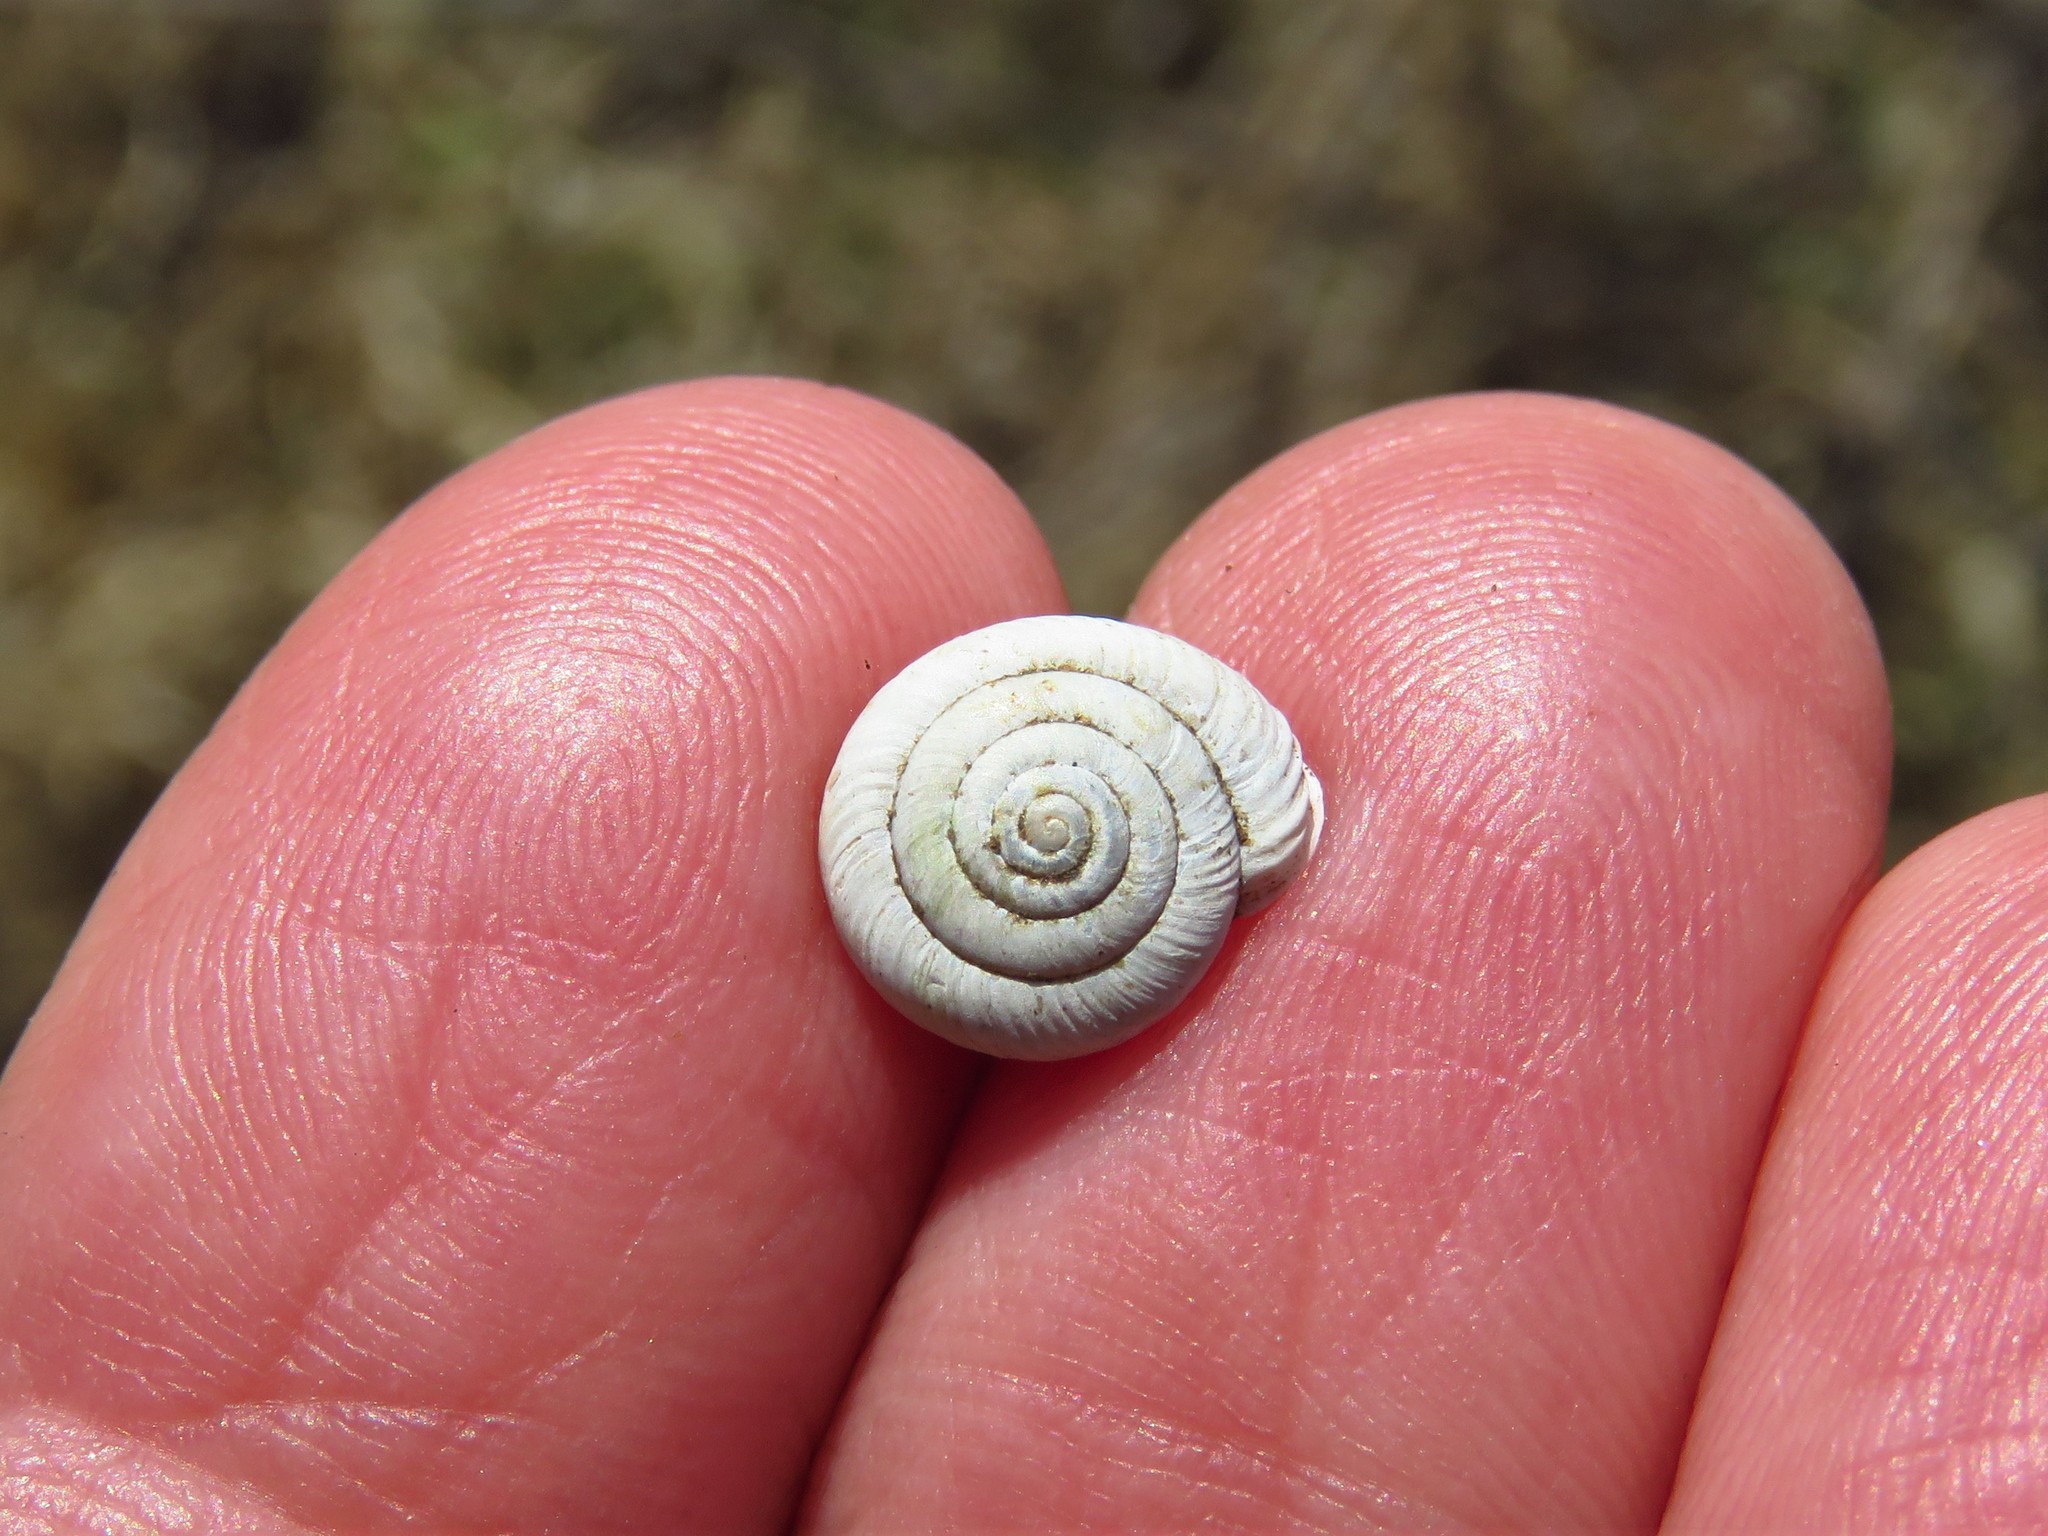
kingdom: Animalia
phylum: Mollusca
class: Gastropoda
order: Stylommatophora
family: Polygyridae
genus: Linisa
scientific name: Linisa texasiana
